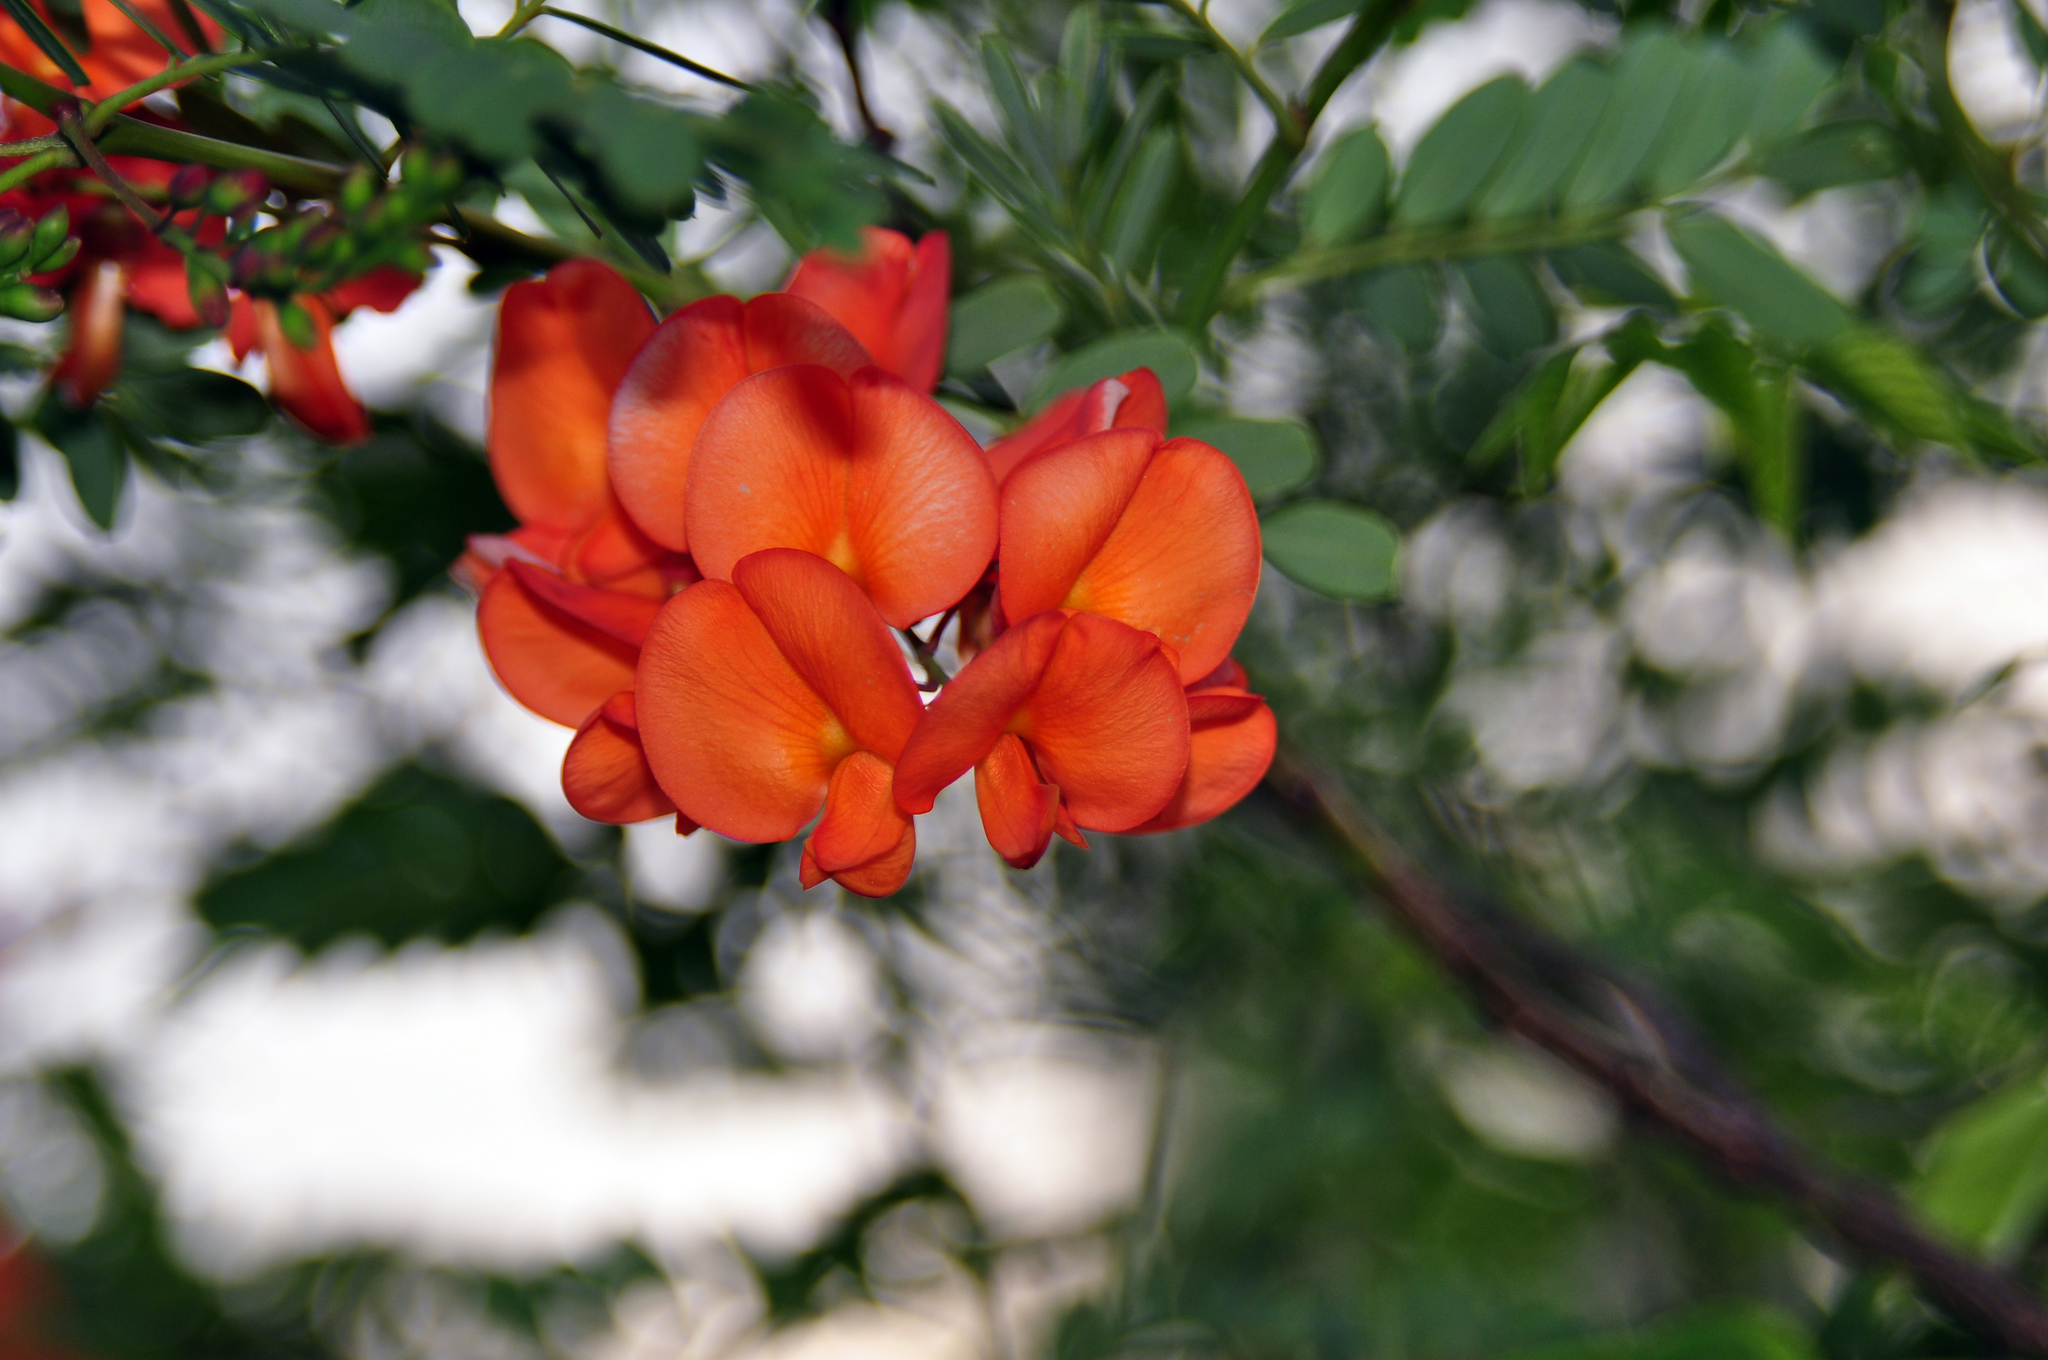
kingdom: Plantae
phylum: Tracheophyta
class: Magnoliopsida
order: Fabales
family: Fabaceae
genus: Sesbania
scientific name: Sesbania punicea
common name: Rattlebox
